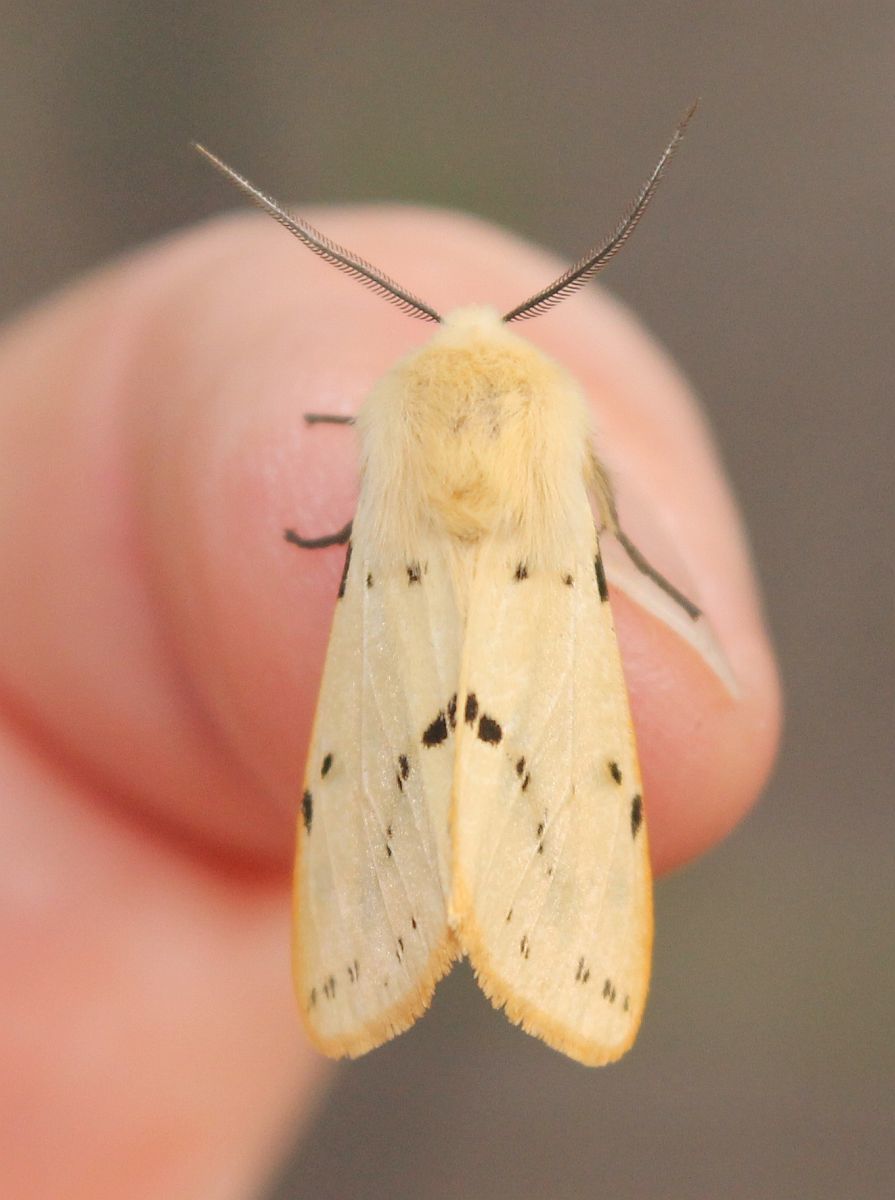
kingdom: Animalia
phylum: Arthropoda
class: Insecta
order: Lepidoptera
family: Erebidae
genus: Spilarctia
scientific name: Spilarctia lutea
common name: Buff ermine
